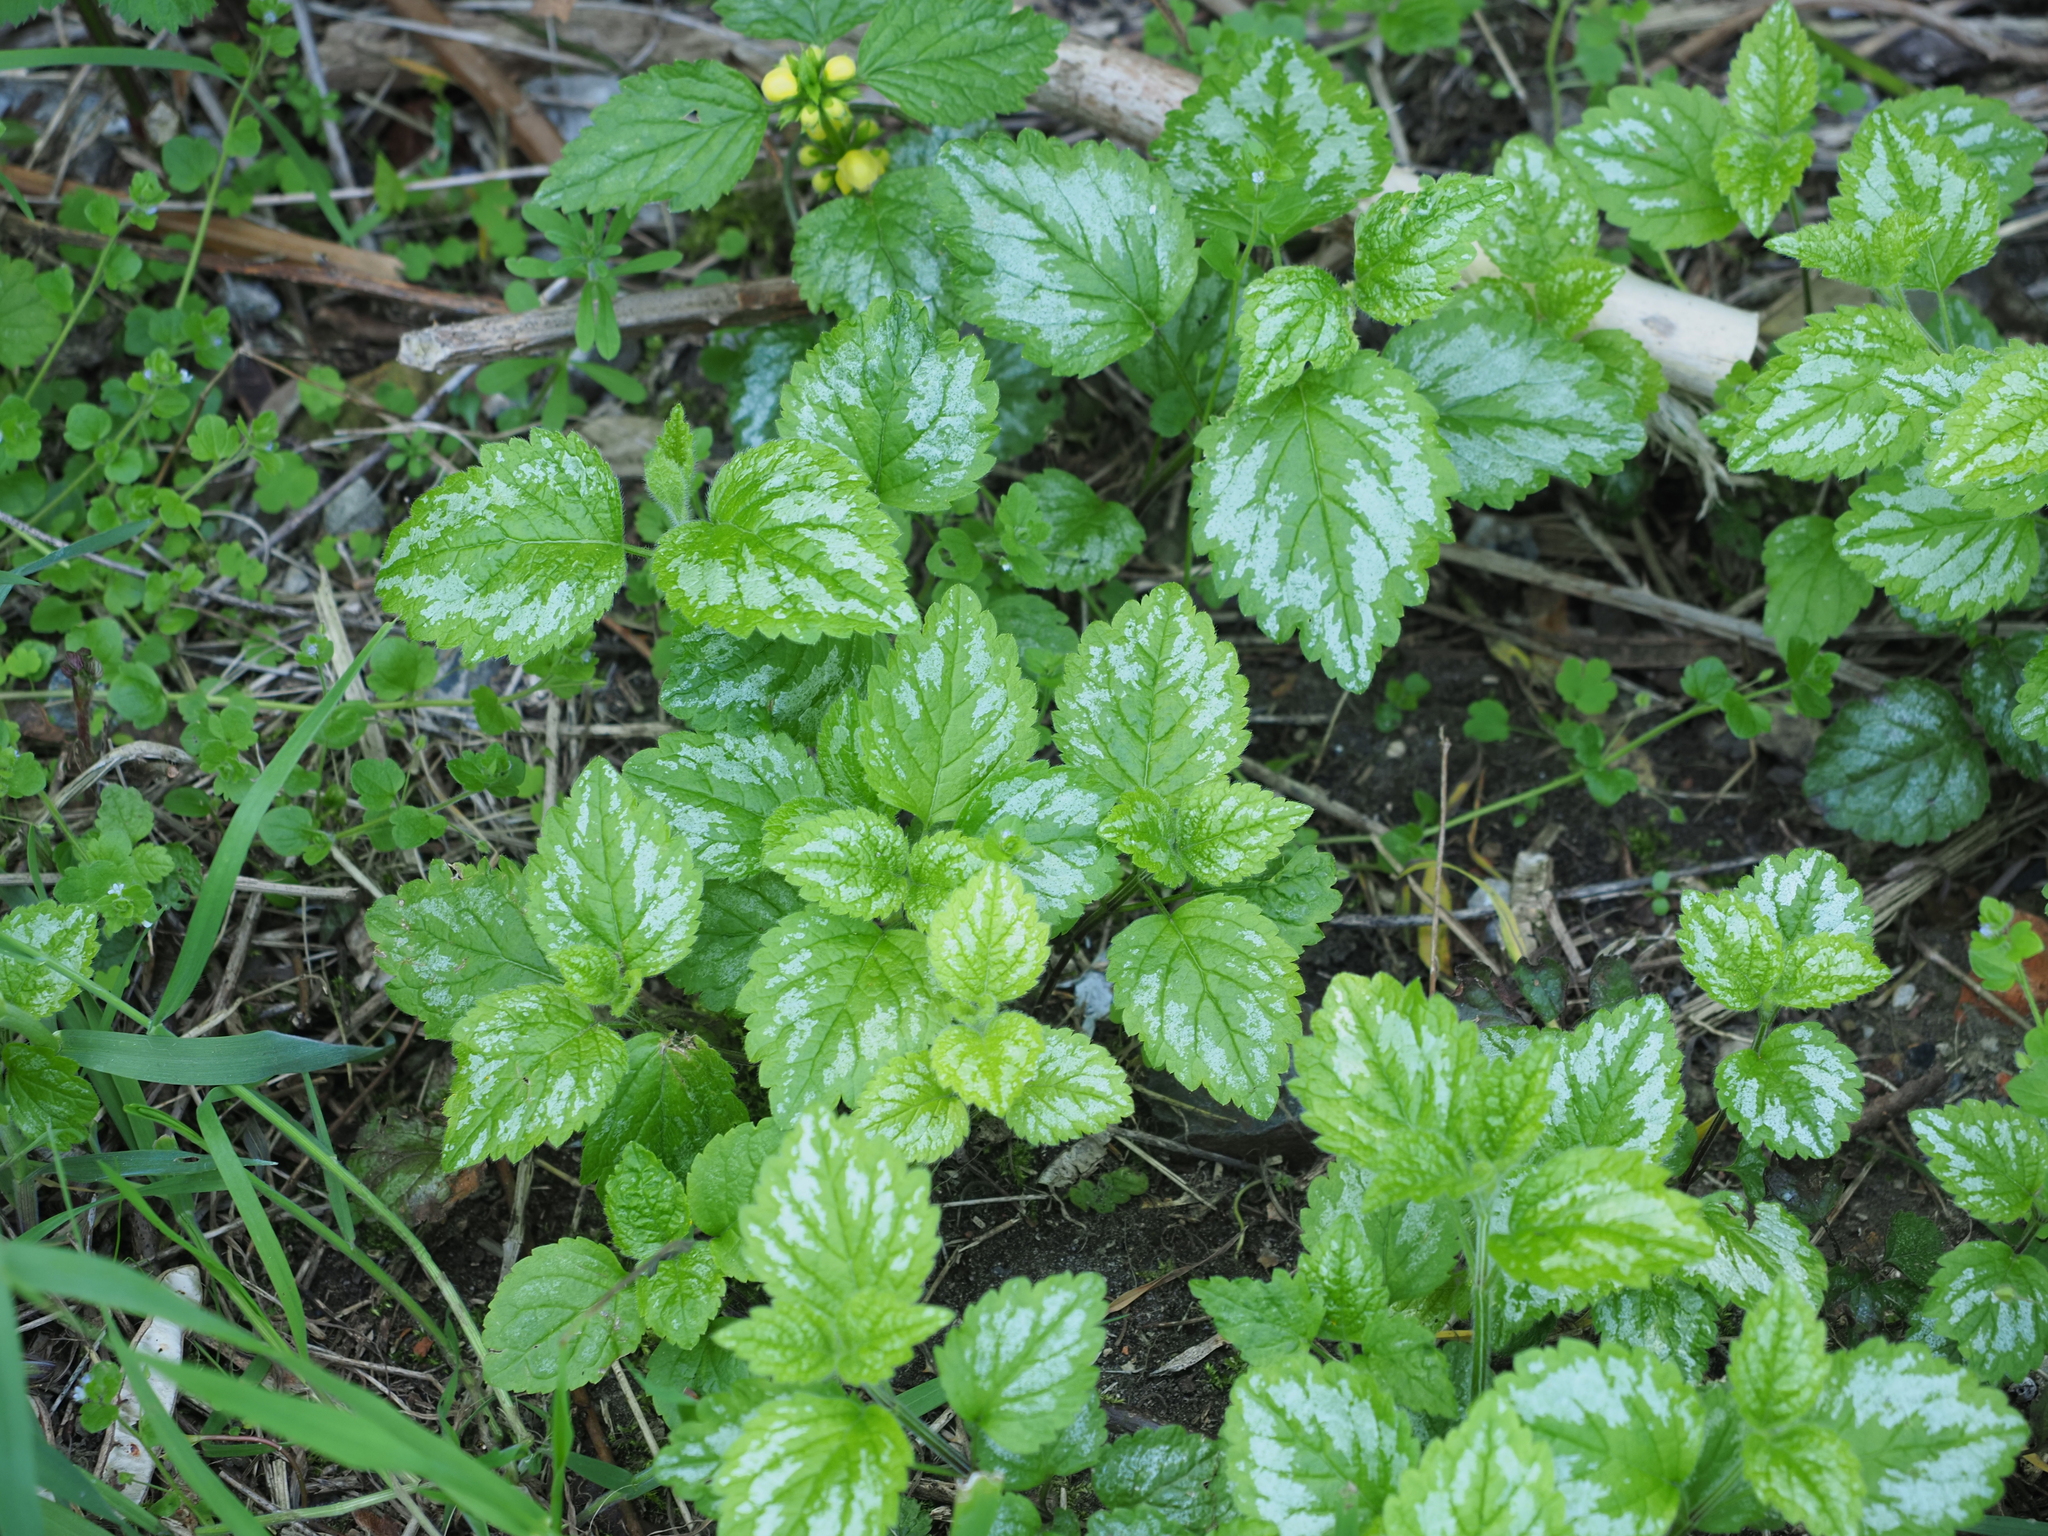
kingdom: Plantae
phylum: Tracheophyta
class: Magnoliopsida
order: Lamiales
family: Lamiaceae
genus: Lamium
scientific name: Lamium galeobdolon
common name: Yellow archangel
